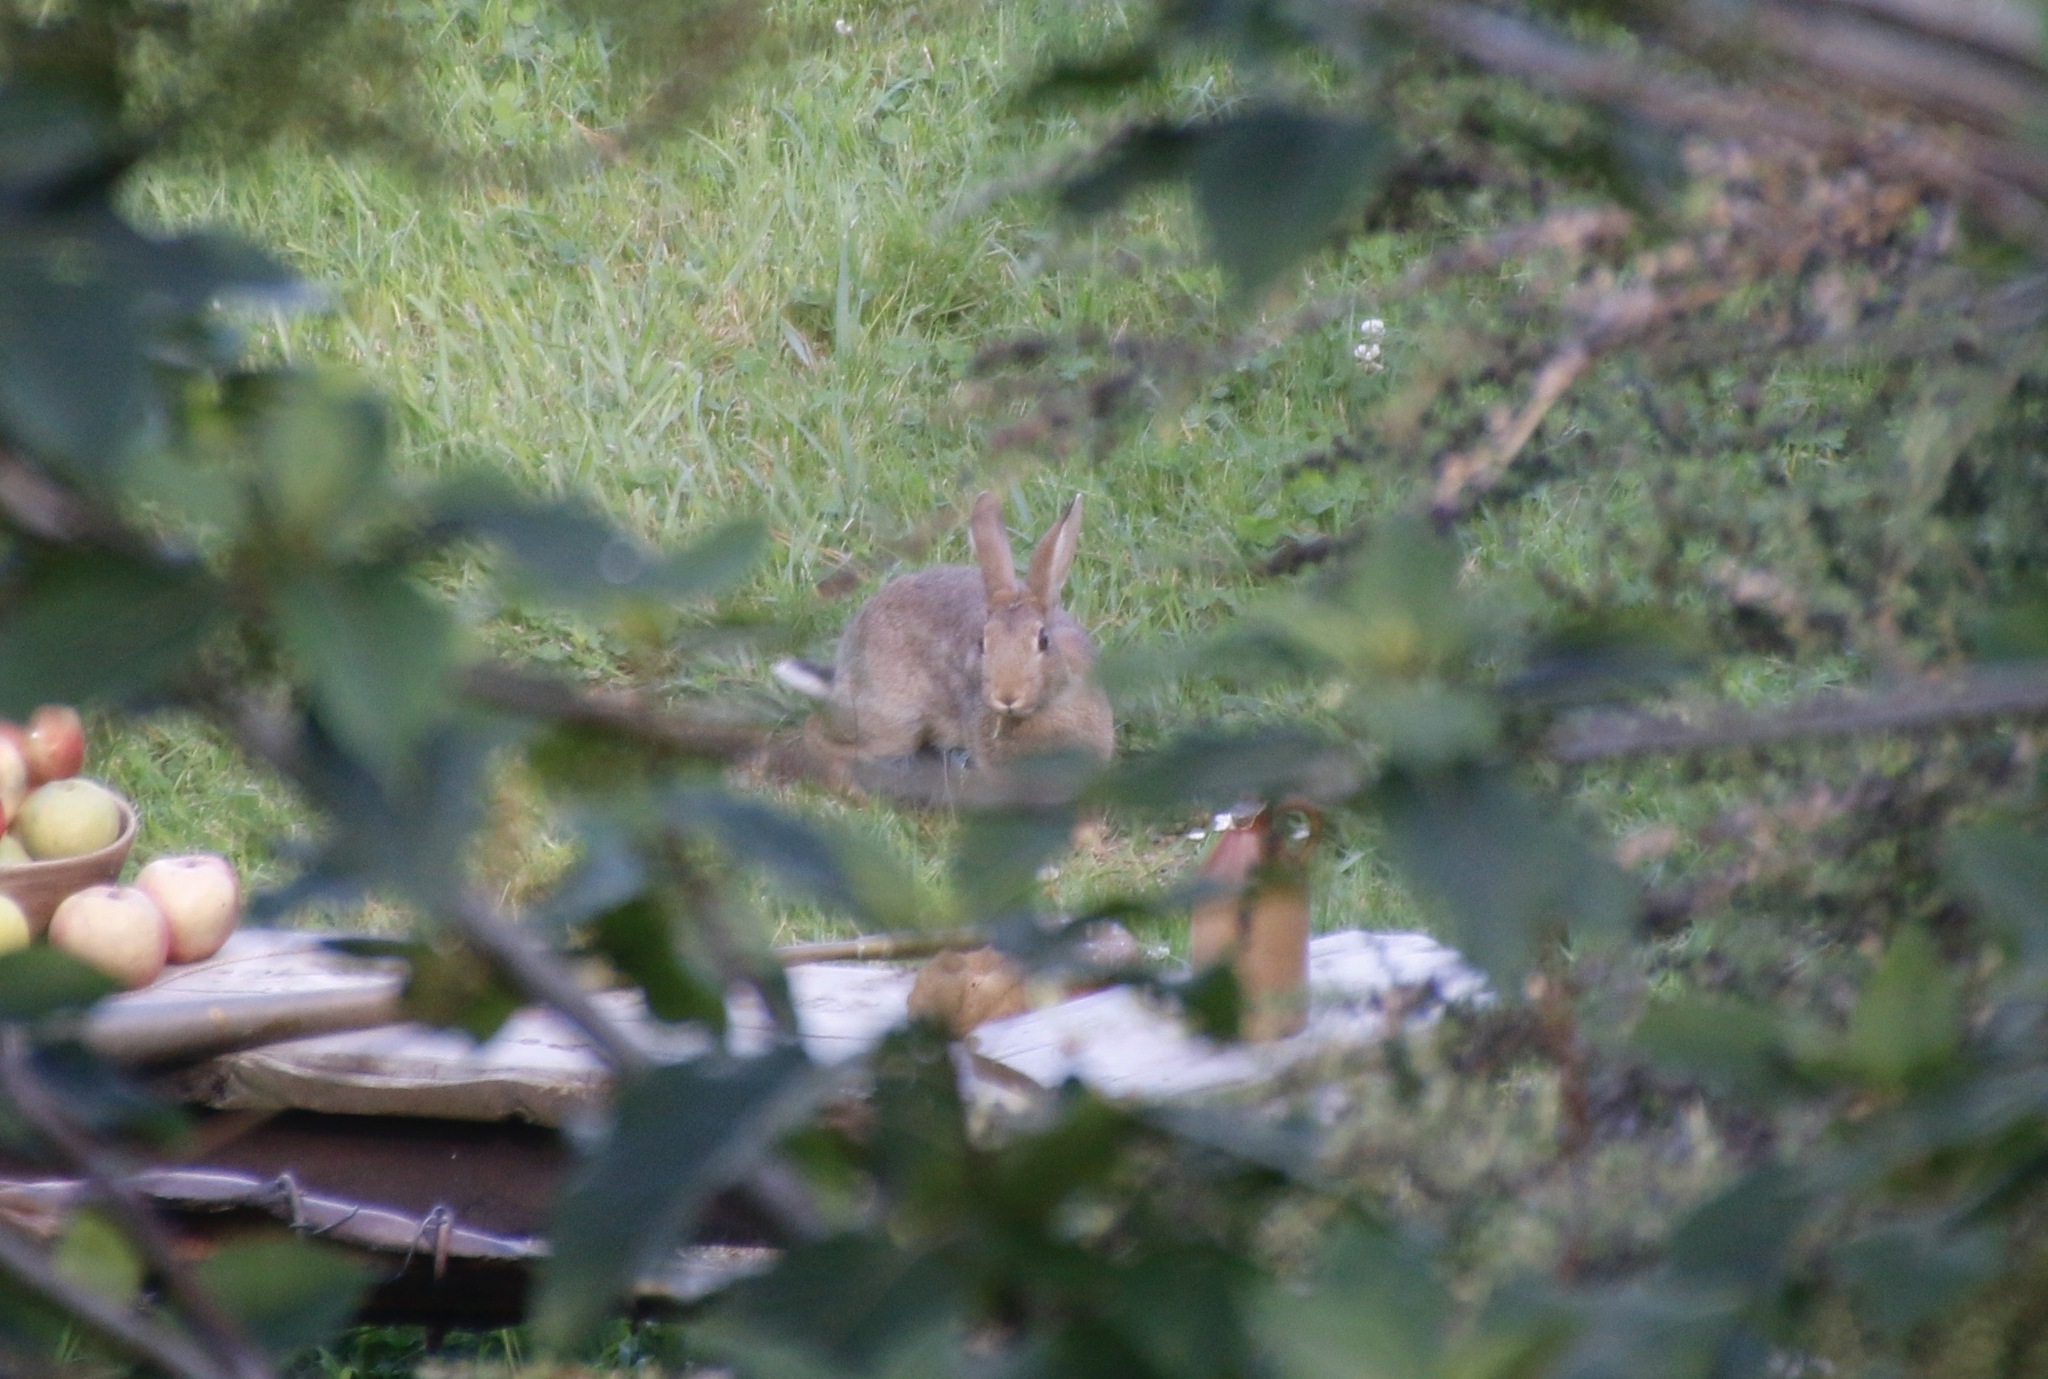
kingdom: Animalia
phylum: Chordata
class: Mammalia
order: Lagomorpha
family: Leporidae
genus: Oryctolagus
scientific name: Oryctolagus cuniculus
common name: European rabbit
